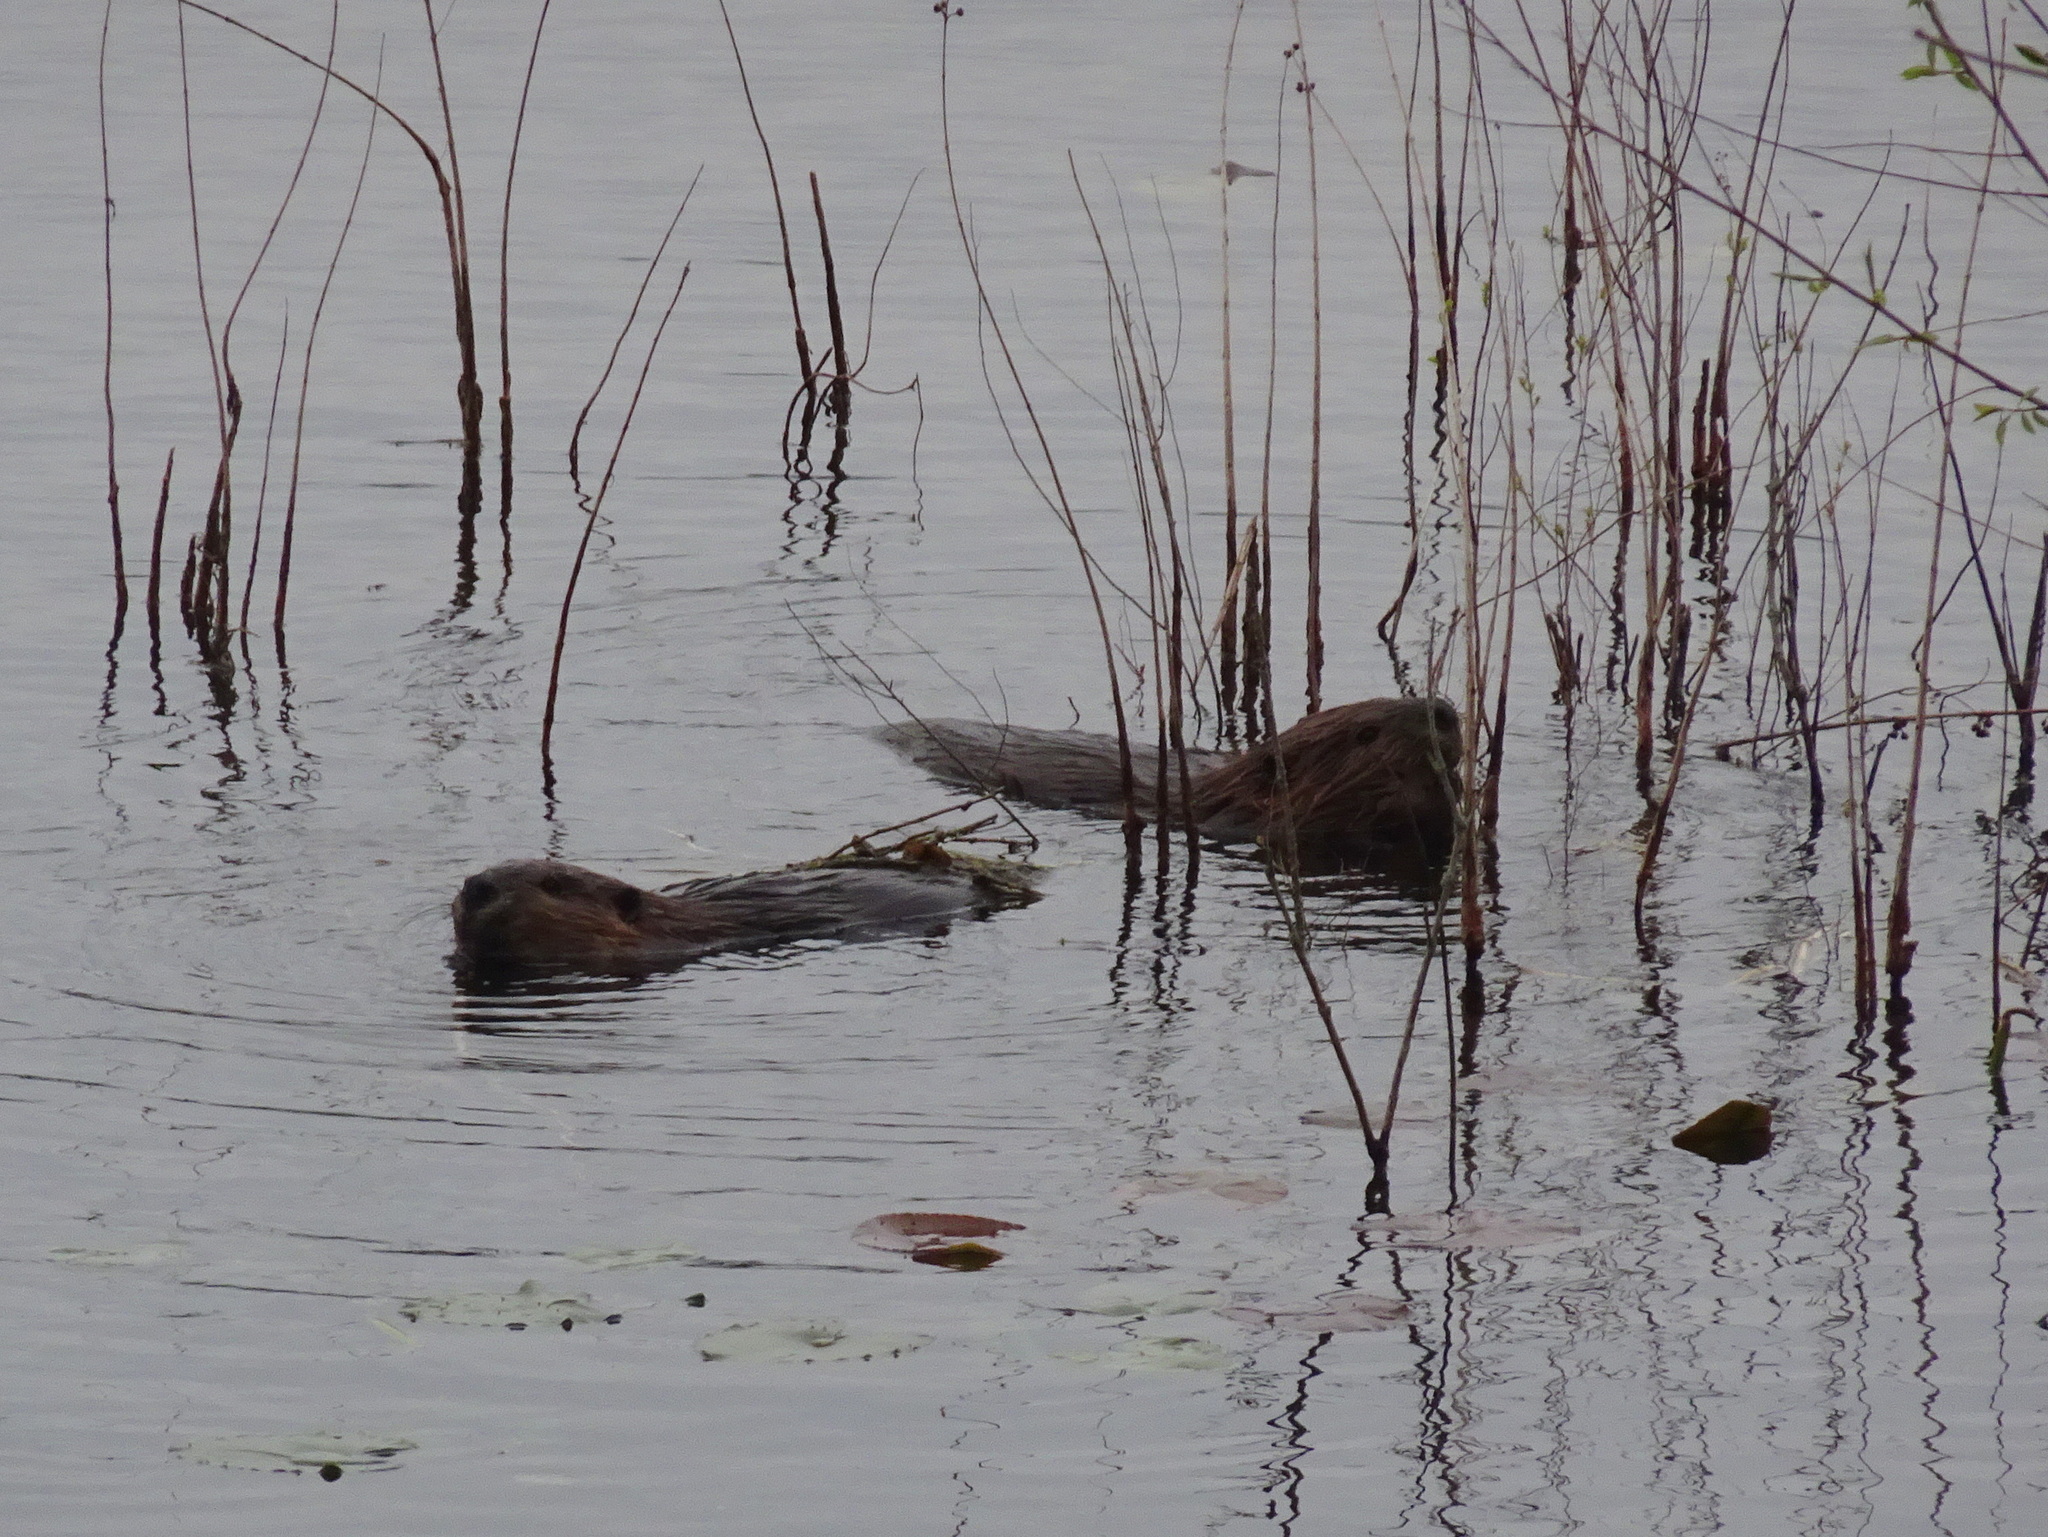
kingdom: Animalia
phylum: Chordata
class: Mammalia
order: Rodentia
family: Castoridae
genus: Castor
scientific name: Castor canadensis
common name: American beaver
